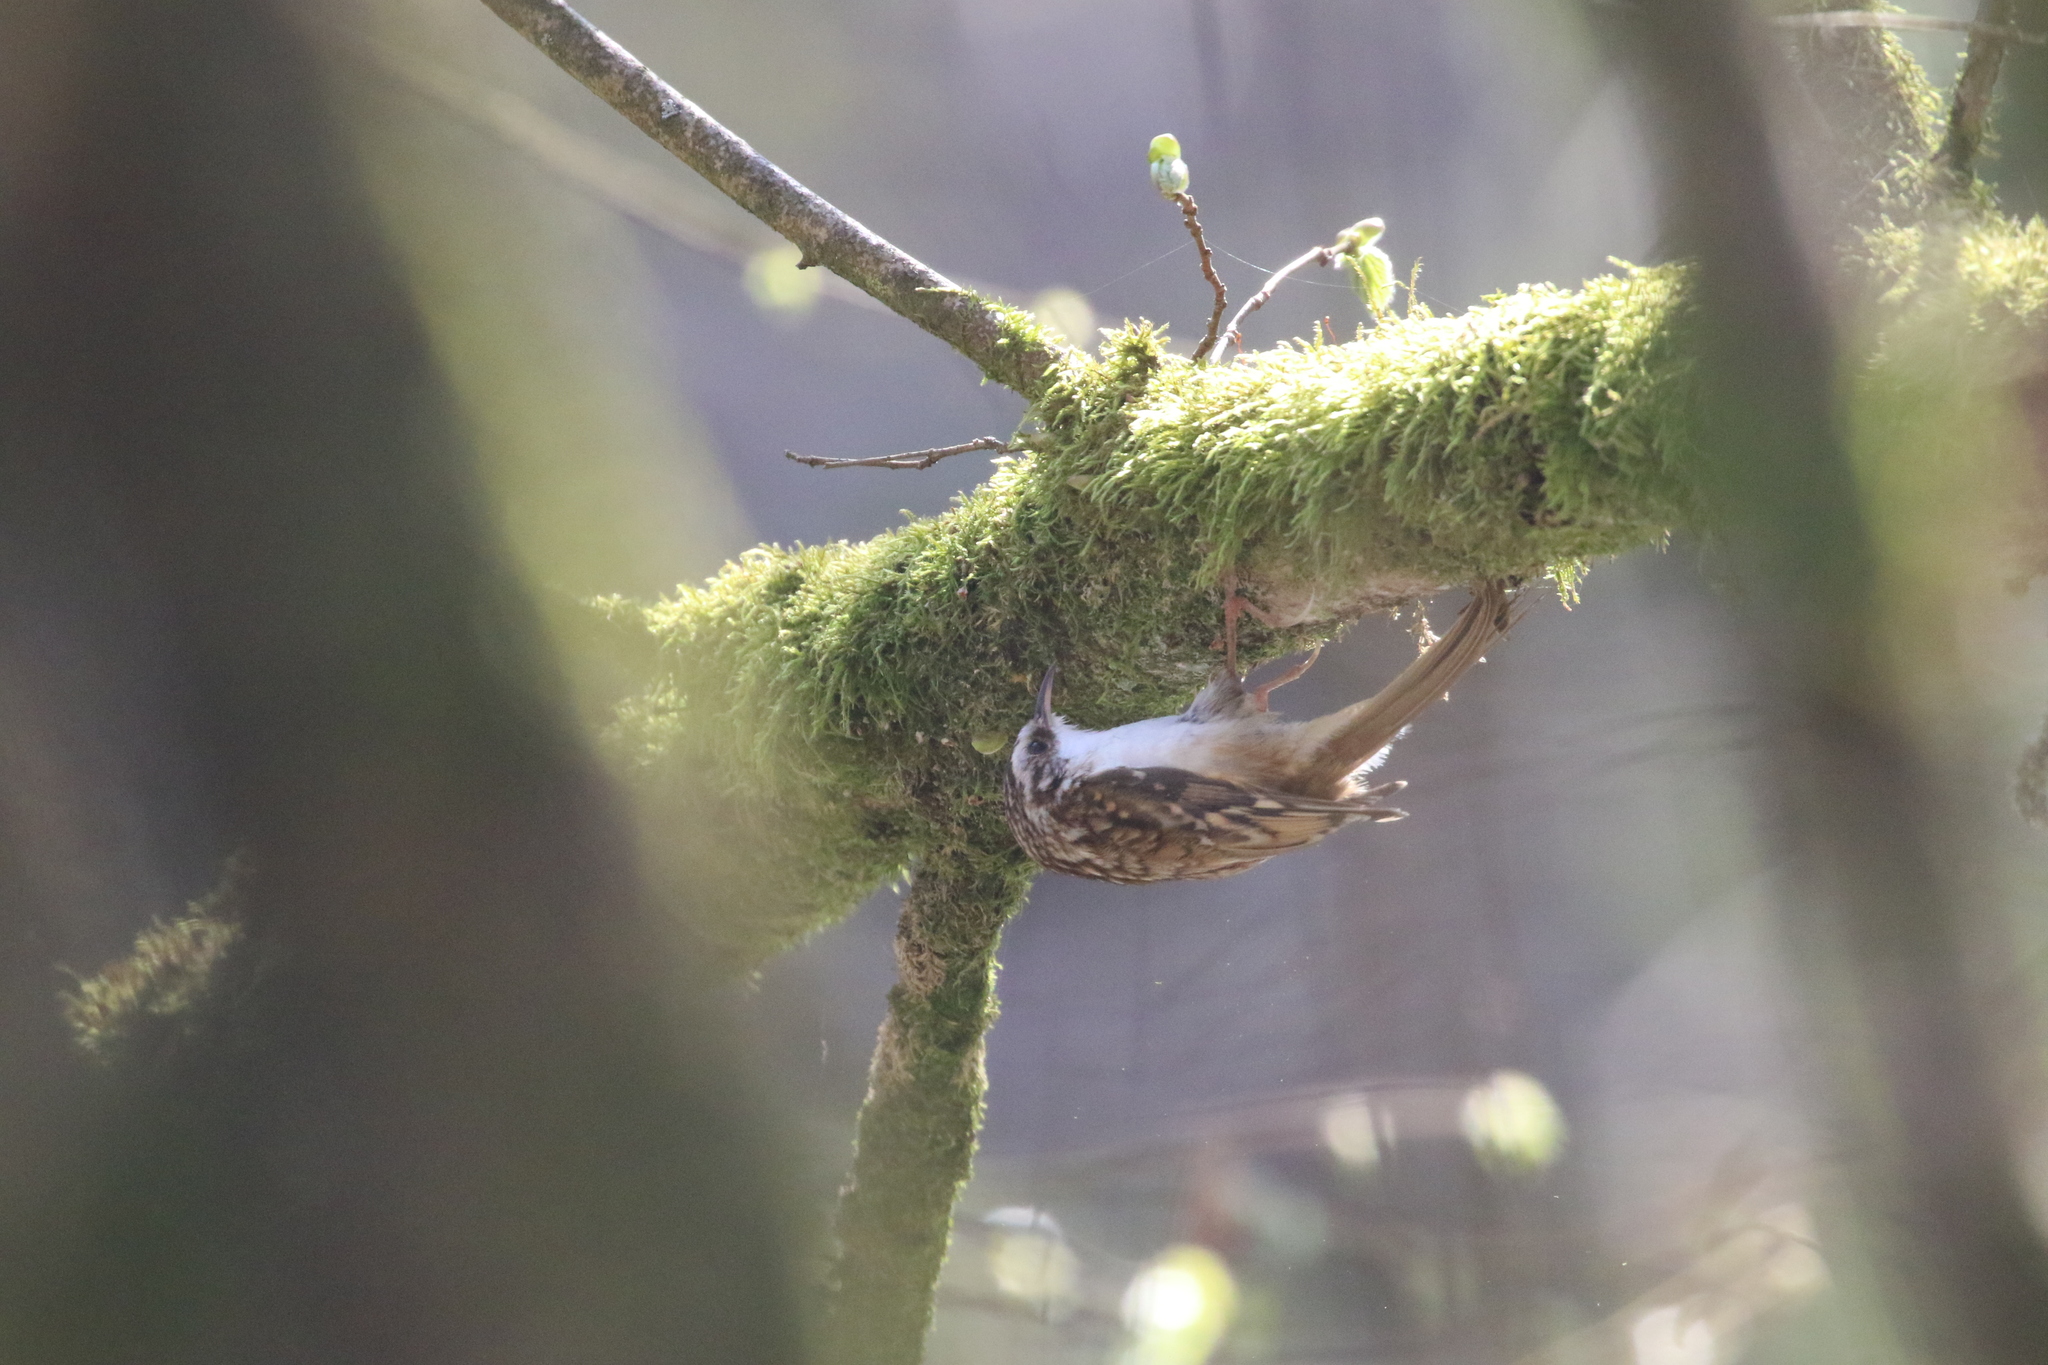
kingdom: Animalia
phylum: Chordata
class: Aves
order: Passeriformes
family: Certhiidae
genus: Certhia
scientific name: Certhia familiaris
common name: Eurasian treecreeper
